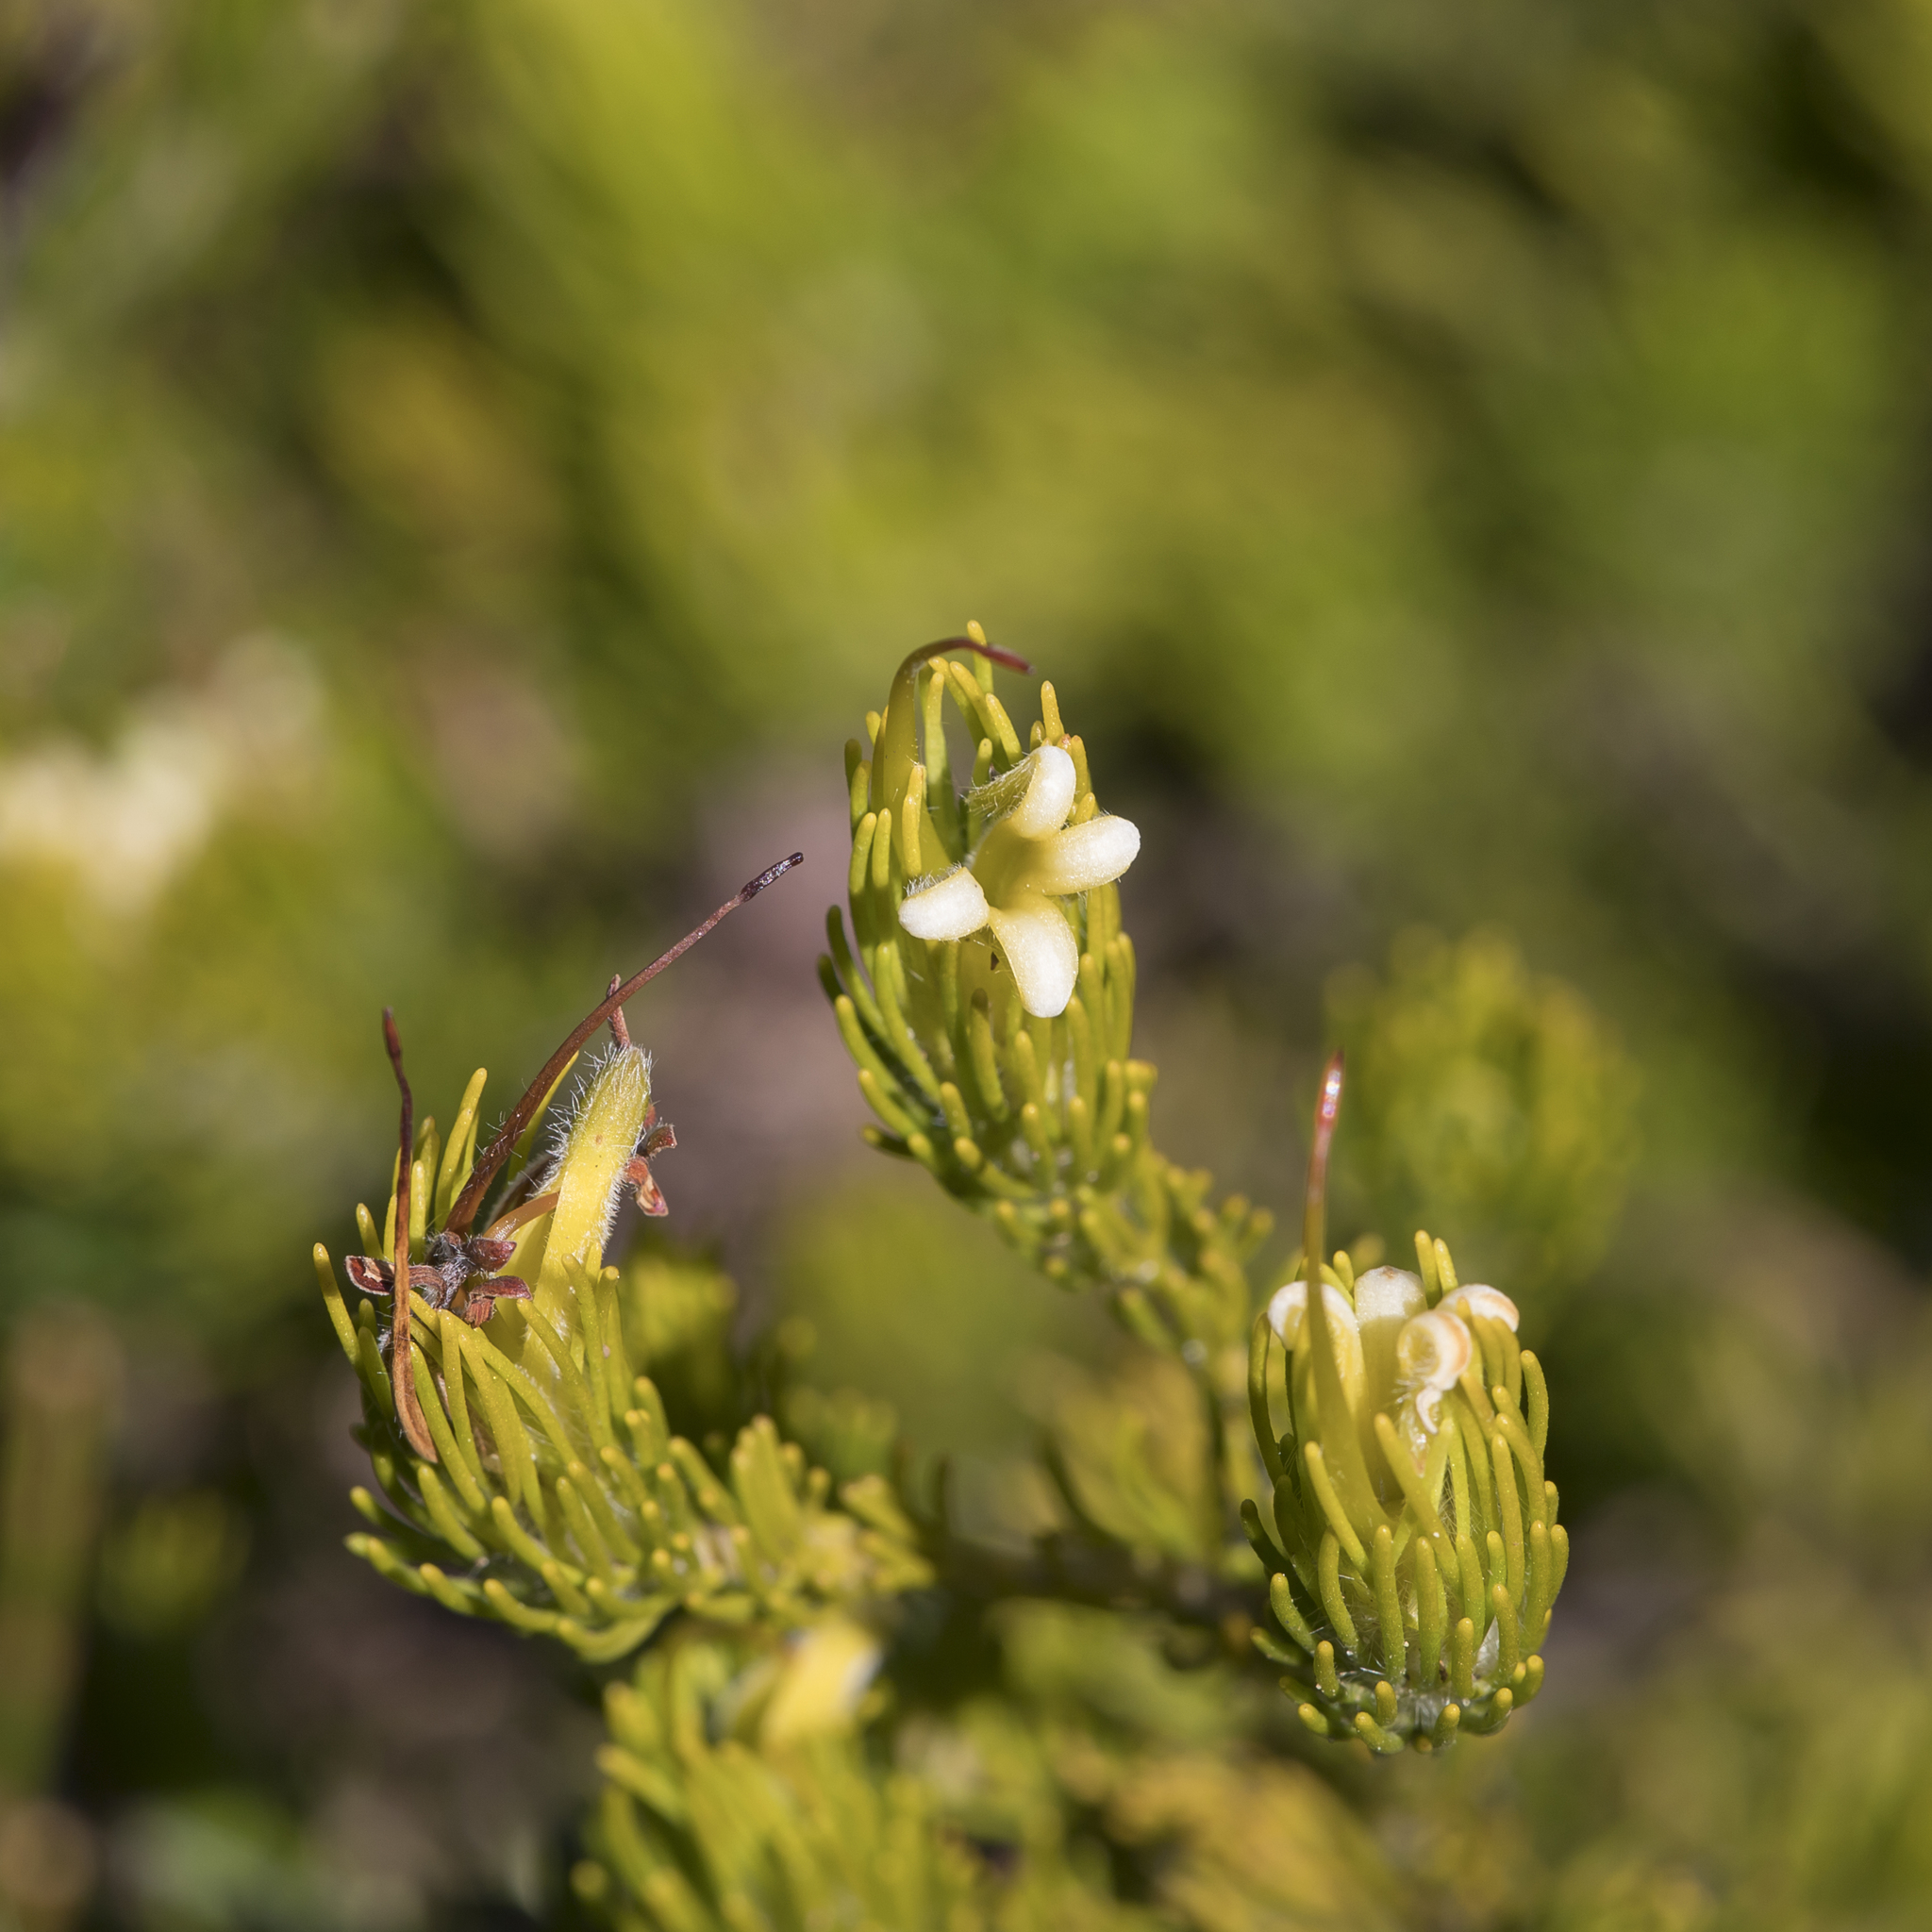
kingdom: Plantae
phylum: Tracheophyta
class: Magnoliopsida
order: Proteales
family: Proteaceae
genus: Adenanthos
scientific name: Adenanthos terminalis
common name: Yellow gland-flower
